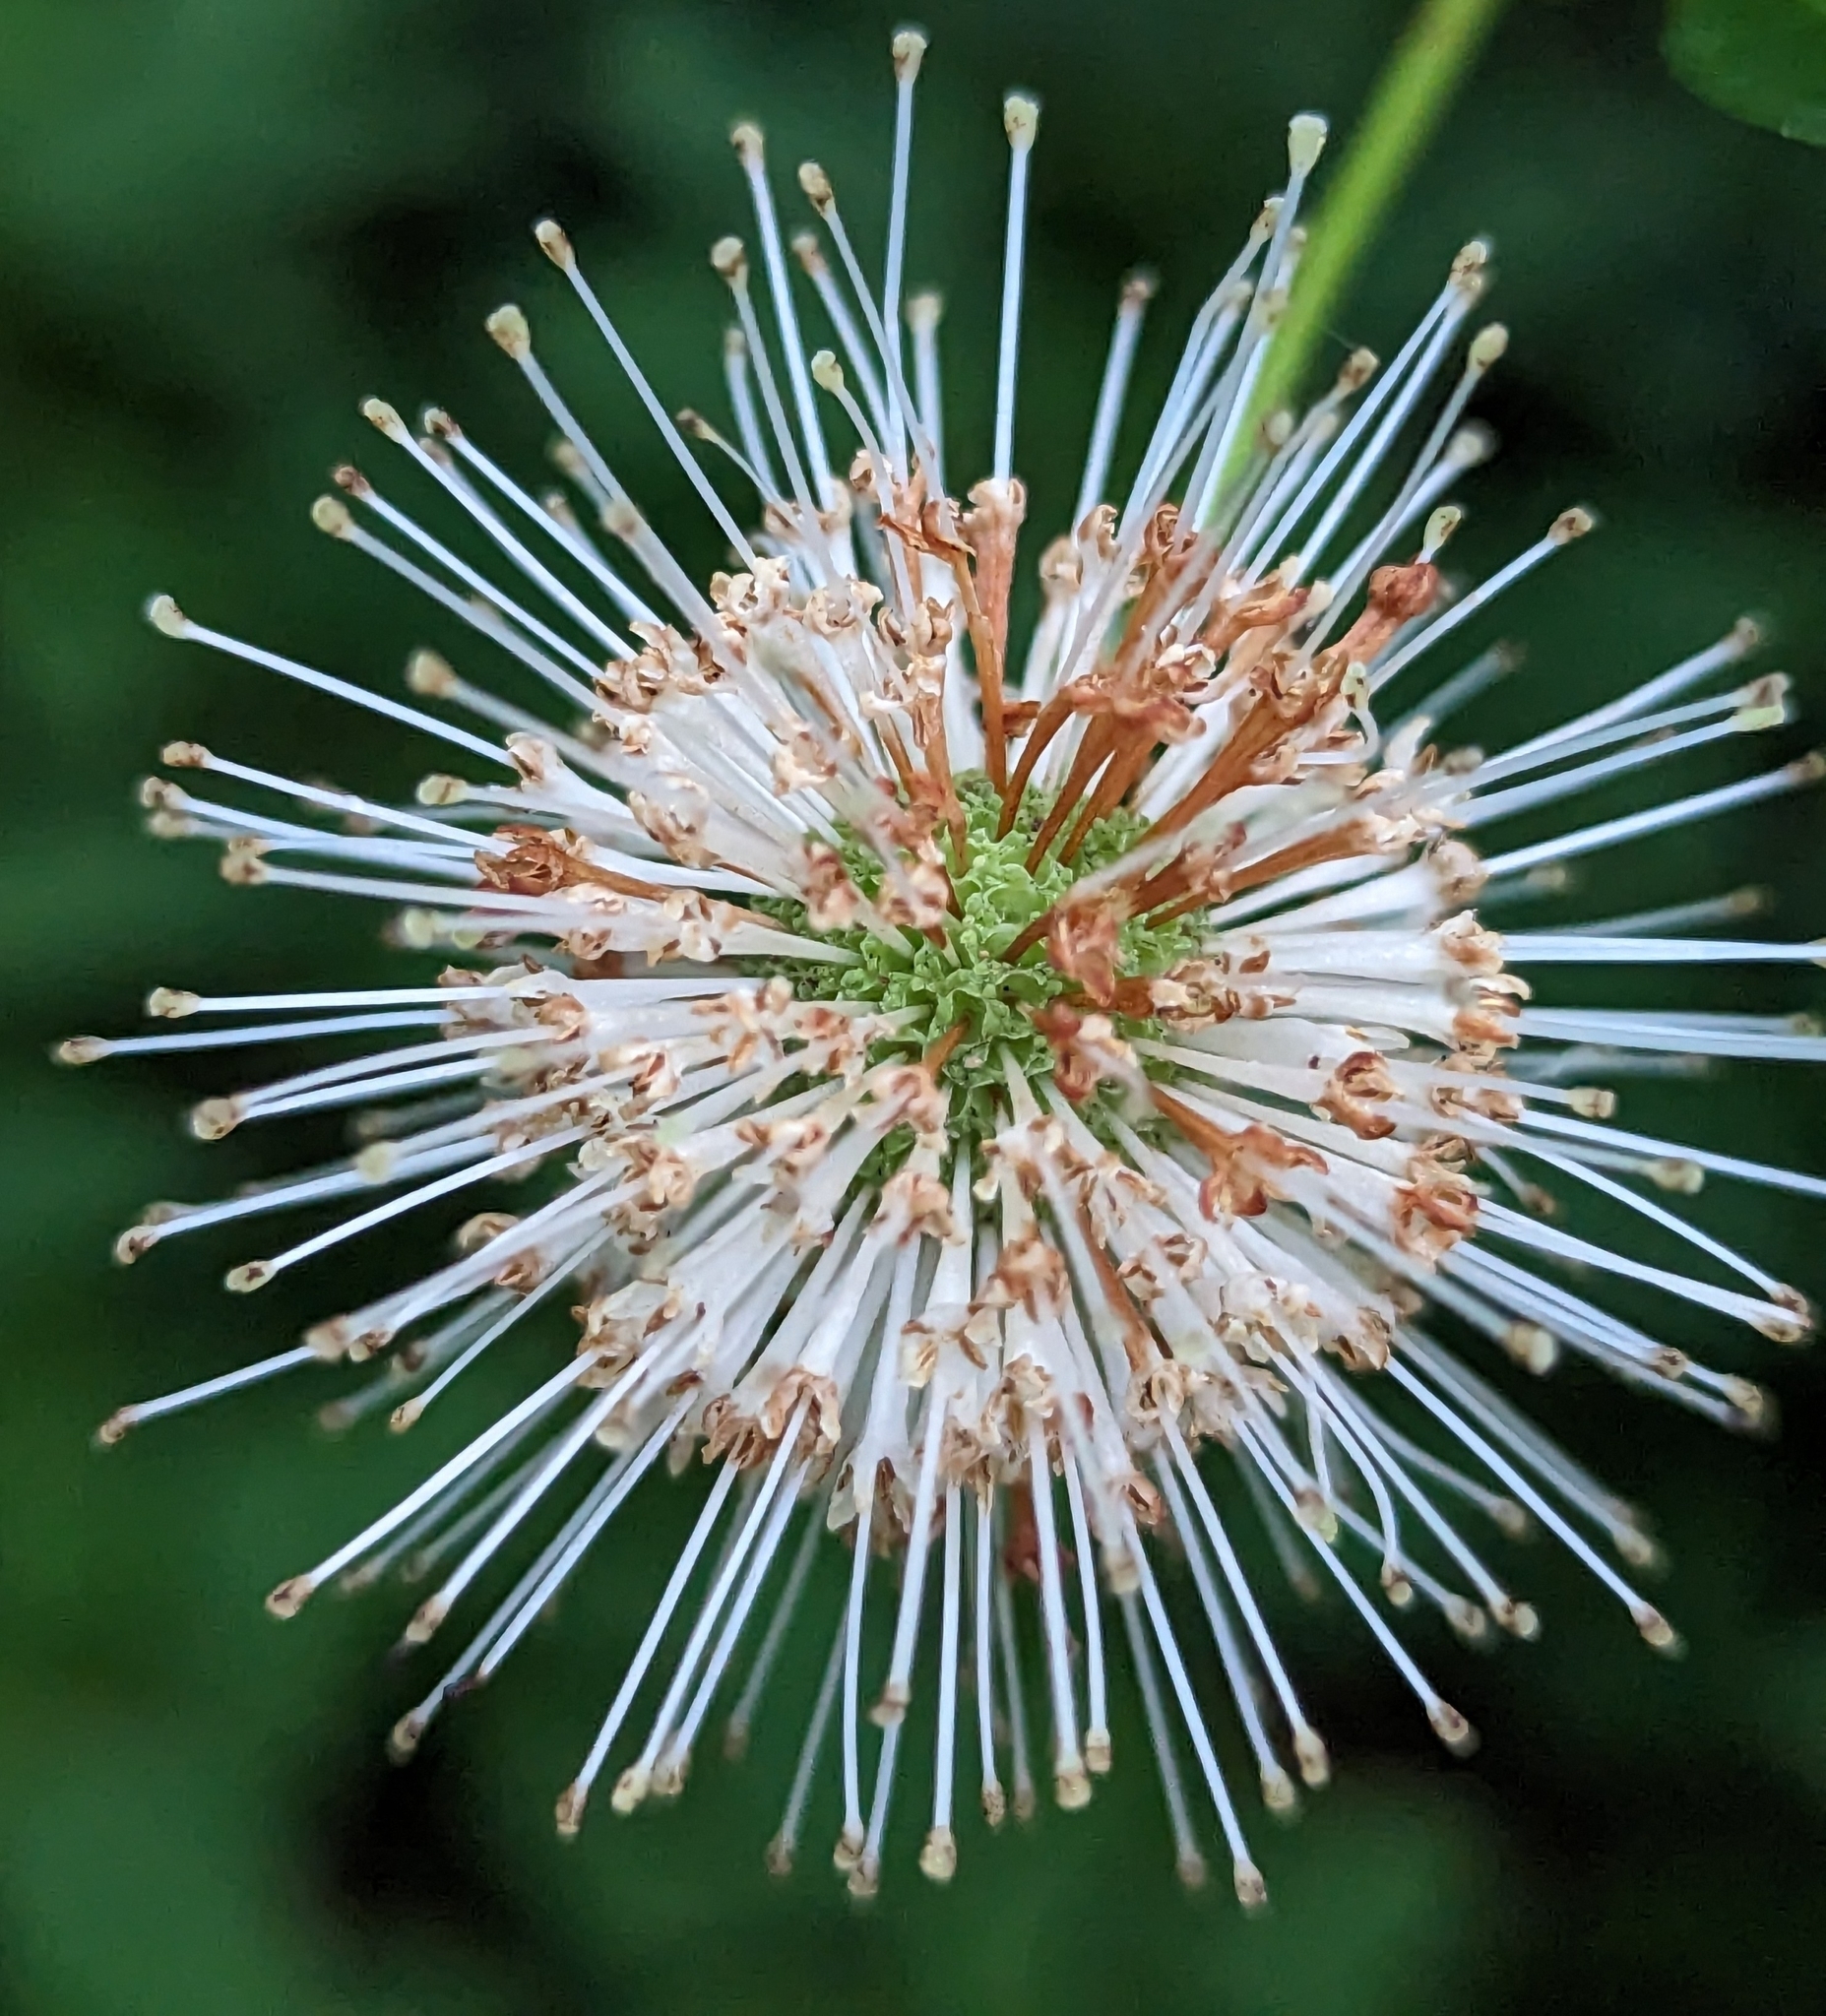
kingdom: Plantae
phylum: Tracheophyta
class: Magnoliopsida
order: Gentianales
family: Rubiaceae
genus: Cephalanthus
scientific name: Cephalanthus occidentalis
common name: Button-willow
